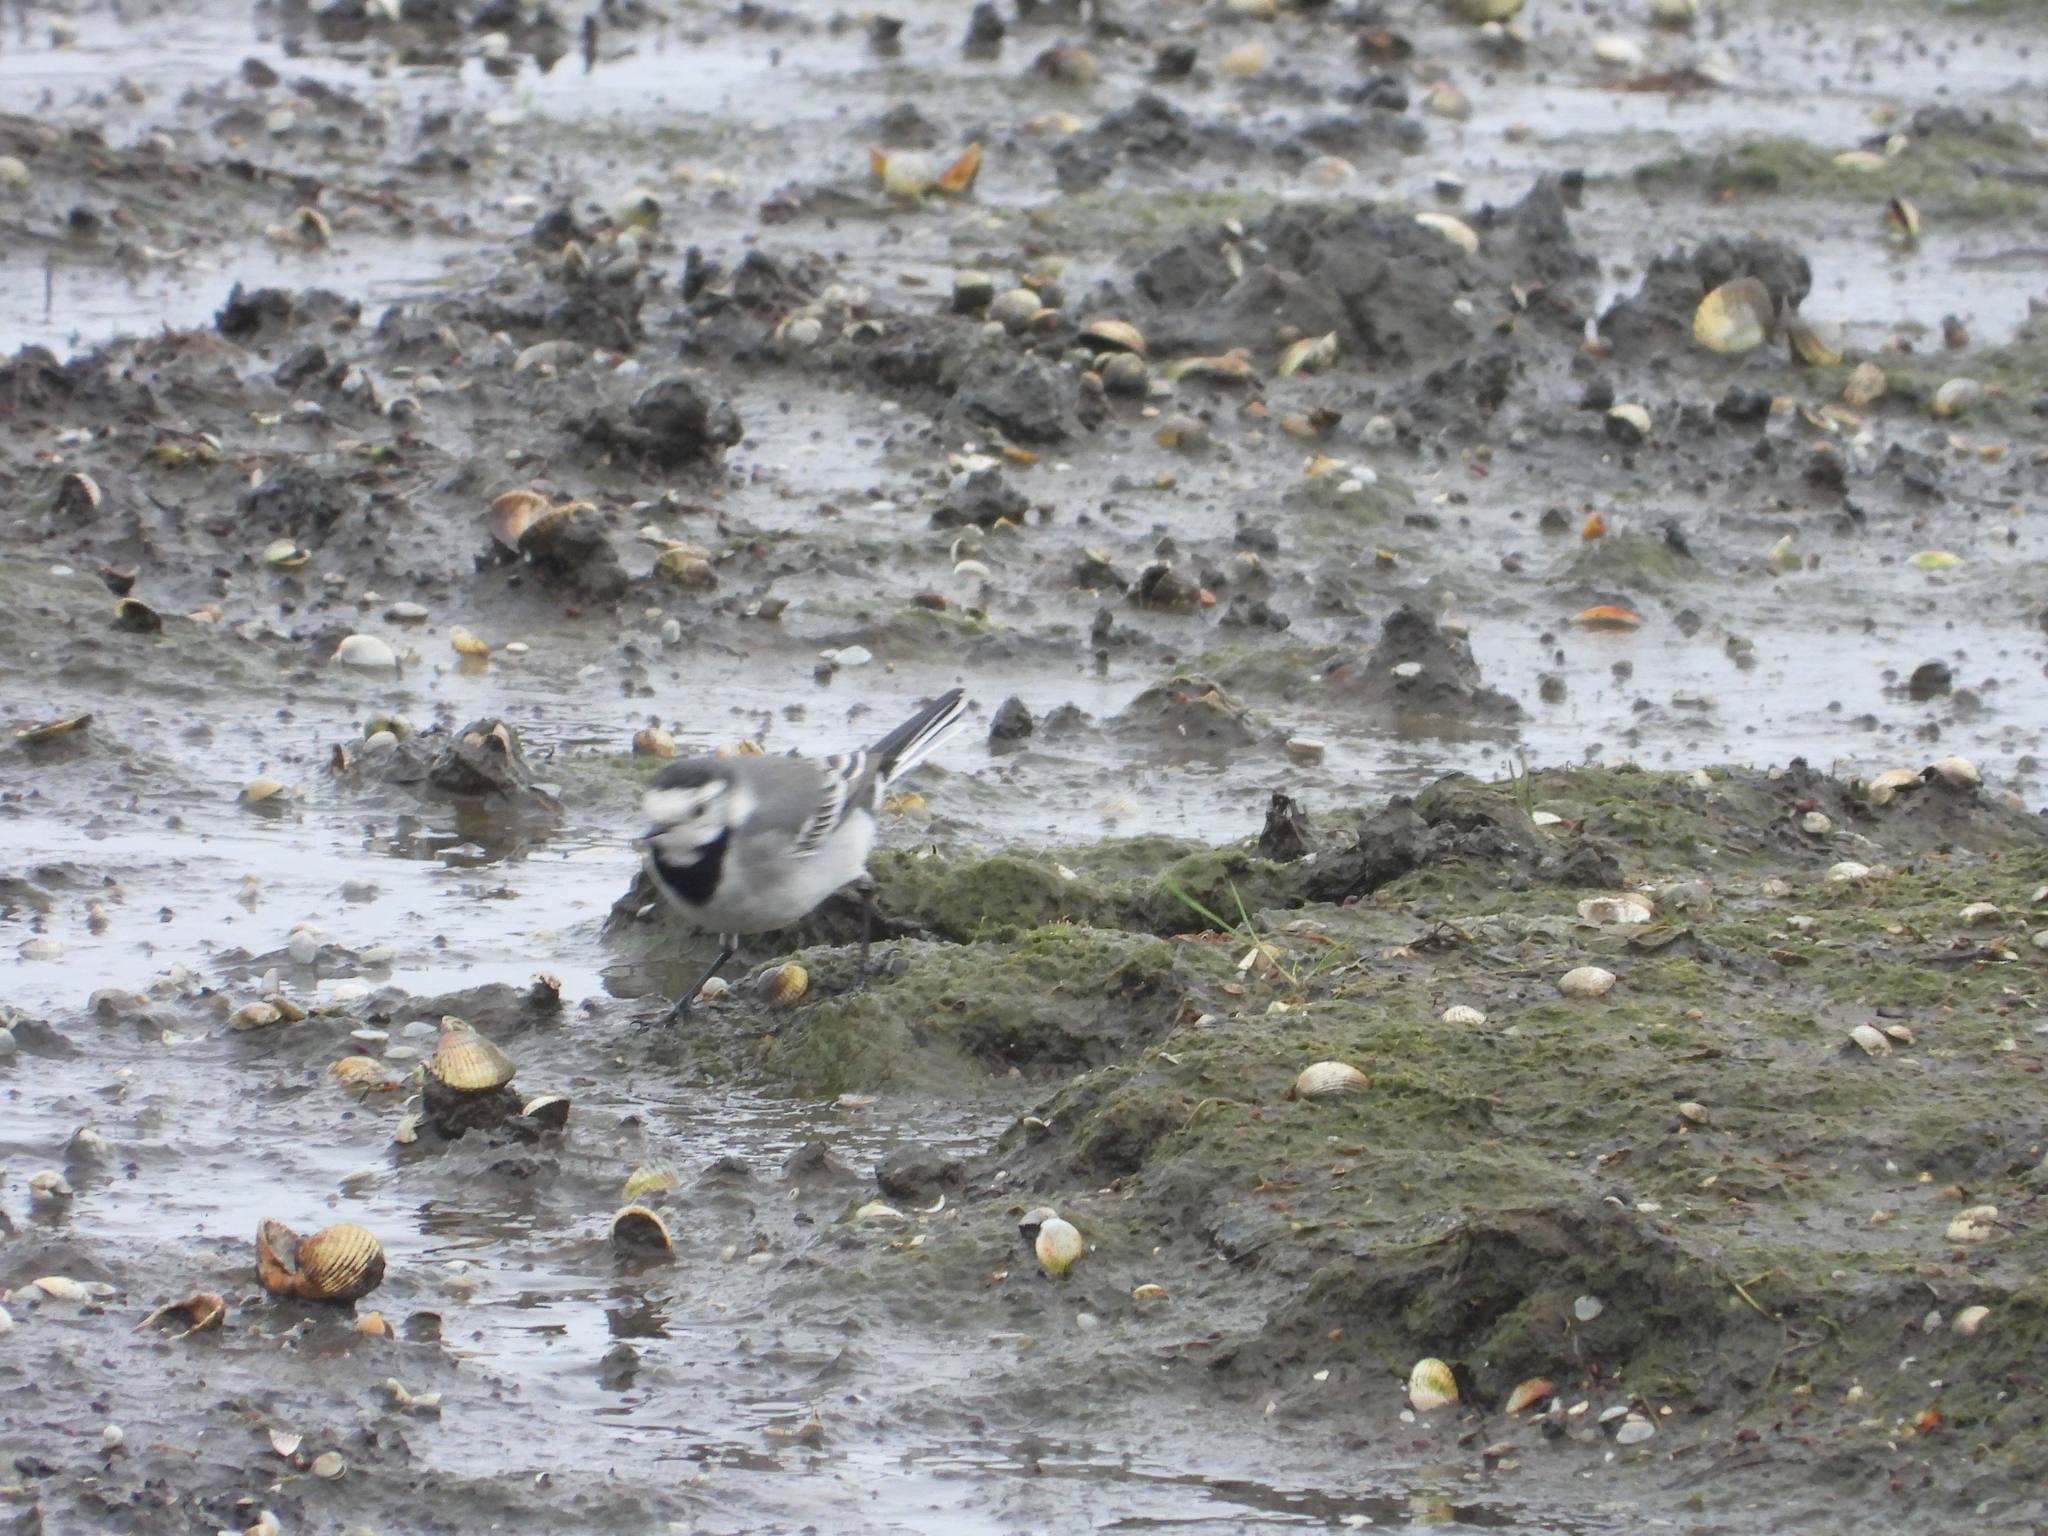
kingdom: Animalia
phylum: Chordata
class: Aves
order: Passeriformes
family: Motacillidae
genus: Motacilla
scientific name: Motacilla alba
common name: White wagtail
